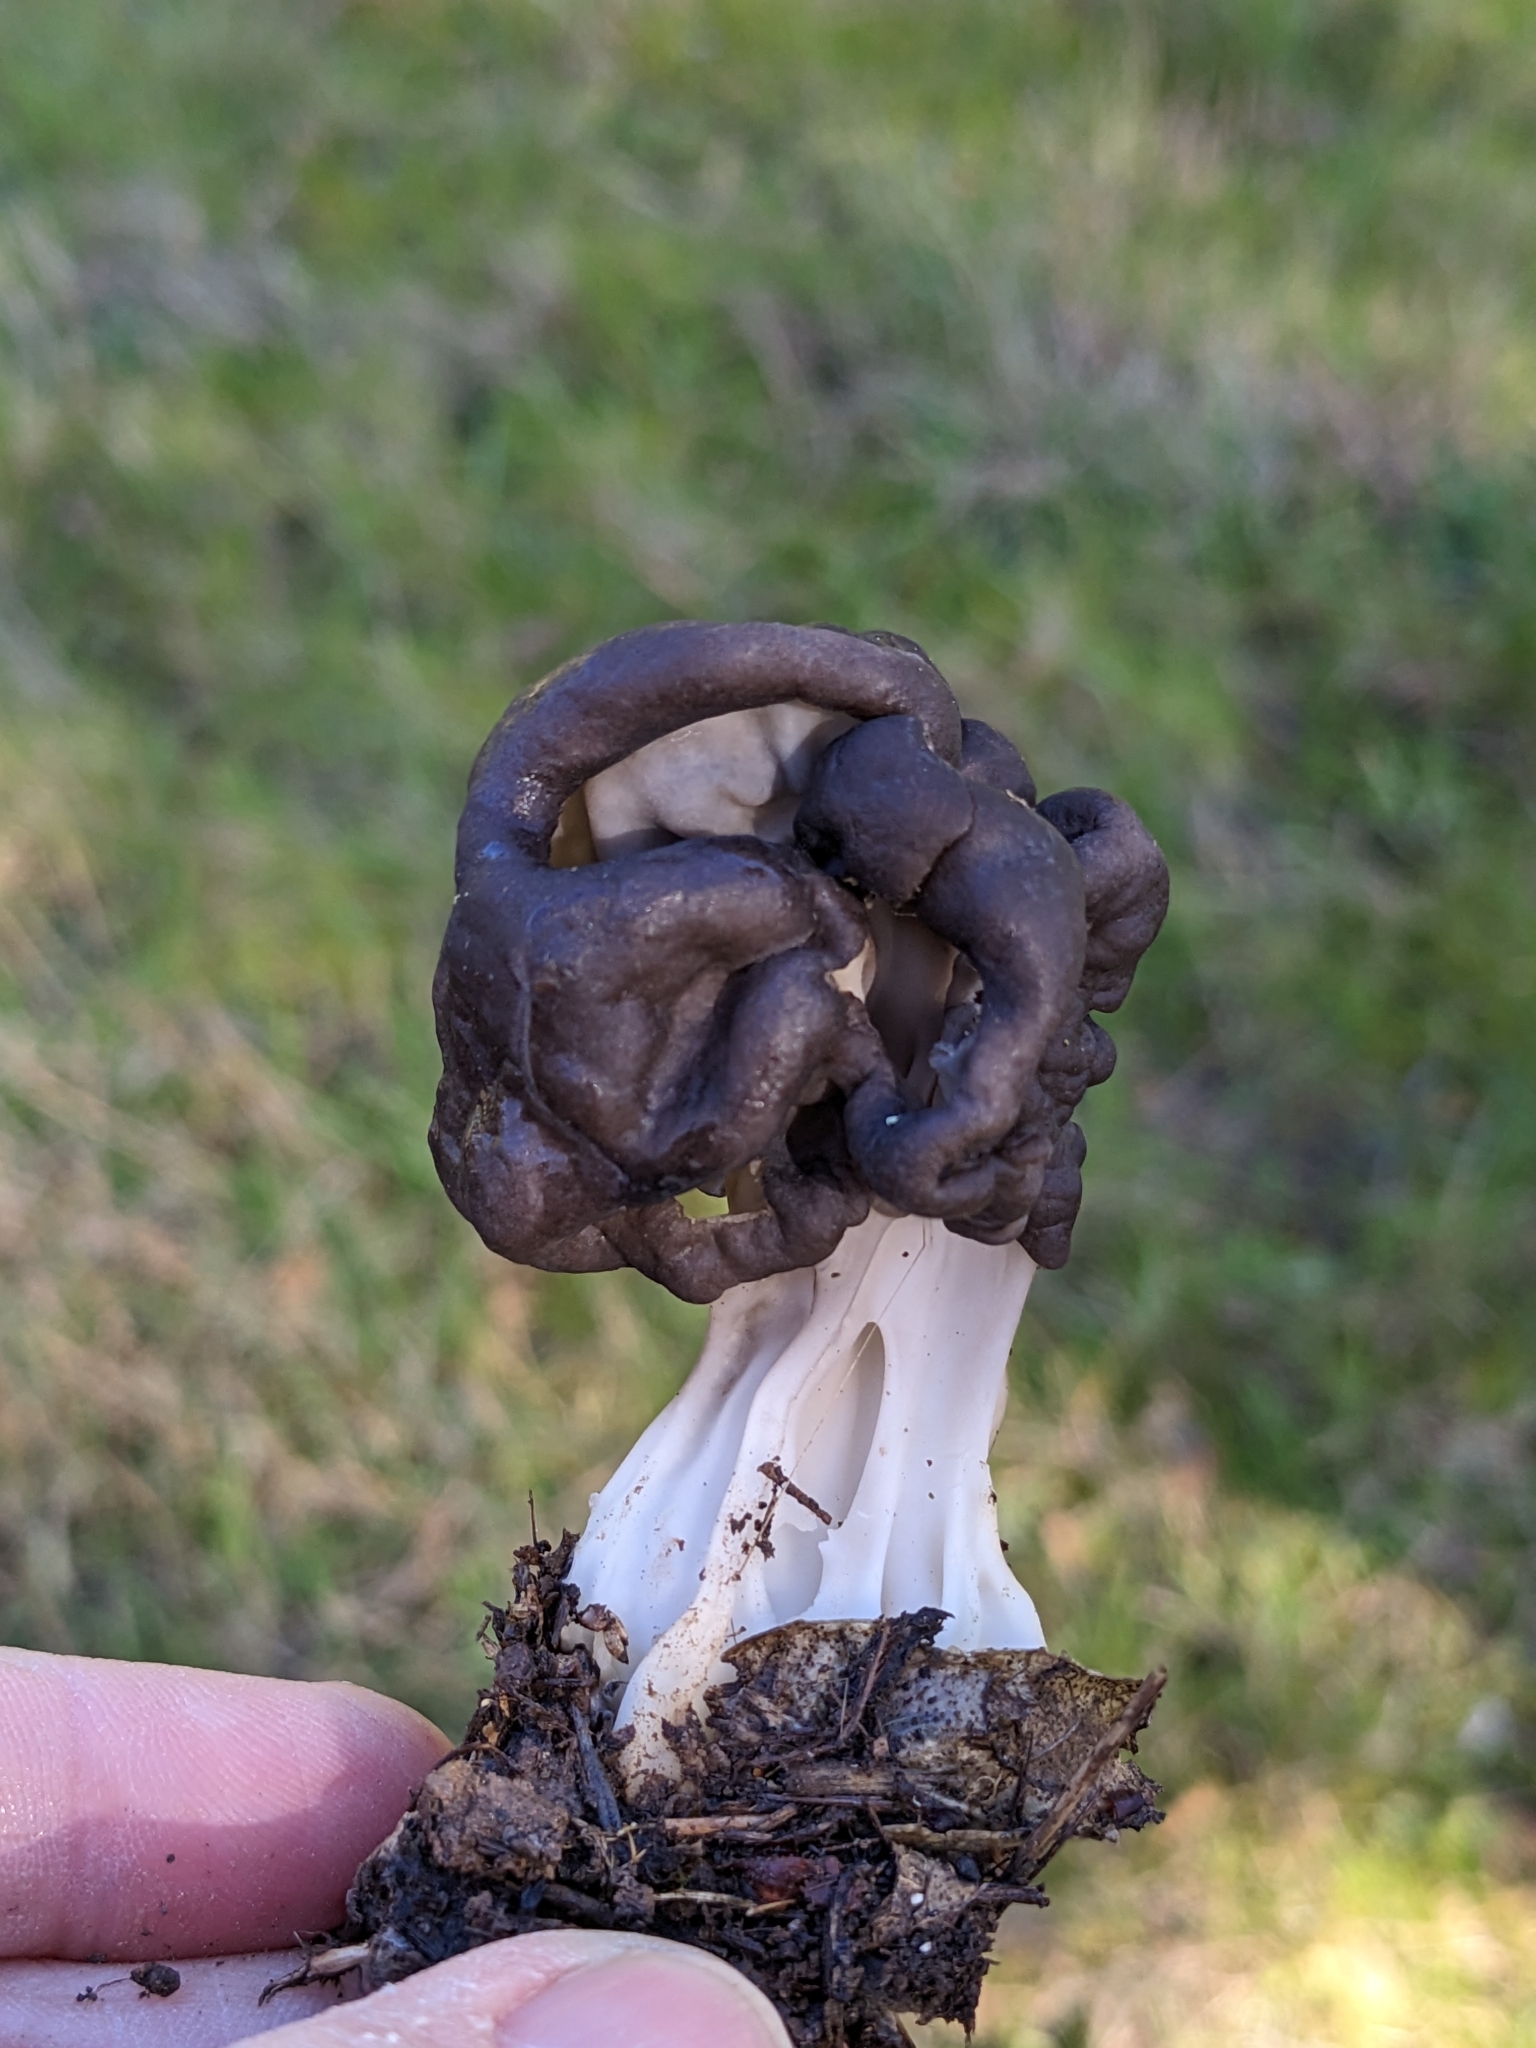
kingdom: Fungi
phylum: Ascomycota
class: Pezizomycetes
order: Pezizales
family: Helvellaceae
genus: Helvella
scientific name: Helvella vespertina
